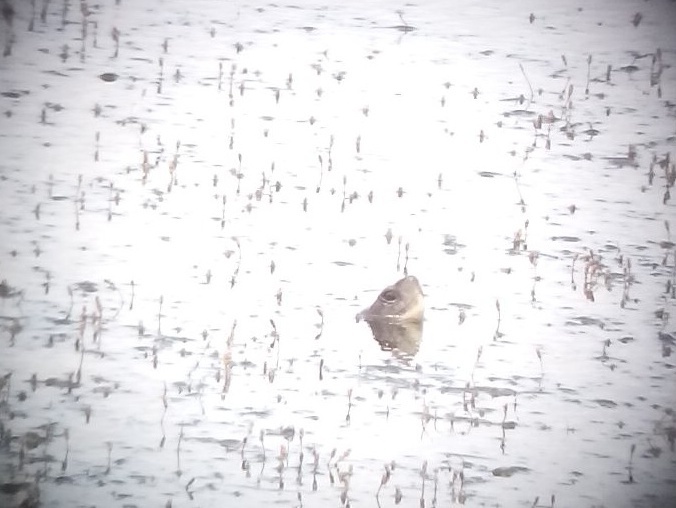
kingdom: Animalia
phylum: Chordata
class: Testudines
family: Emydidae
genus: Actinemys
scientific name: Actinemys marmorata
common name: Western pond turtle
